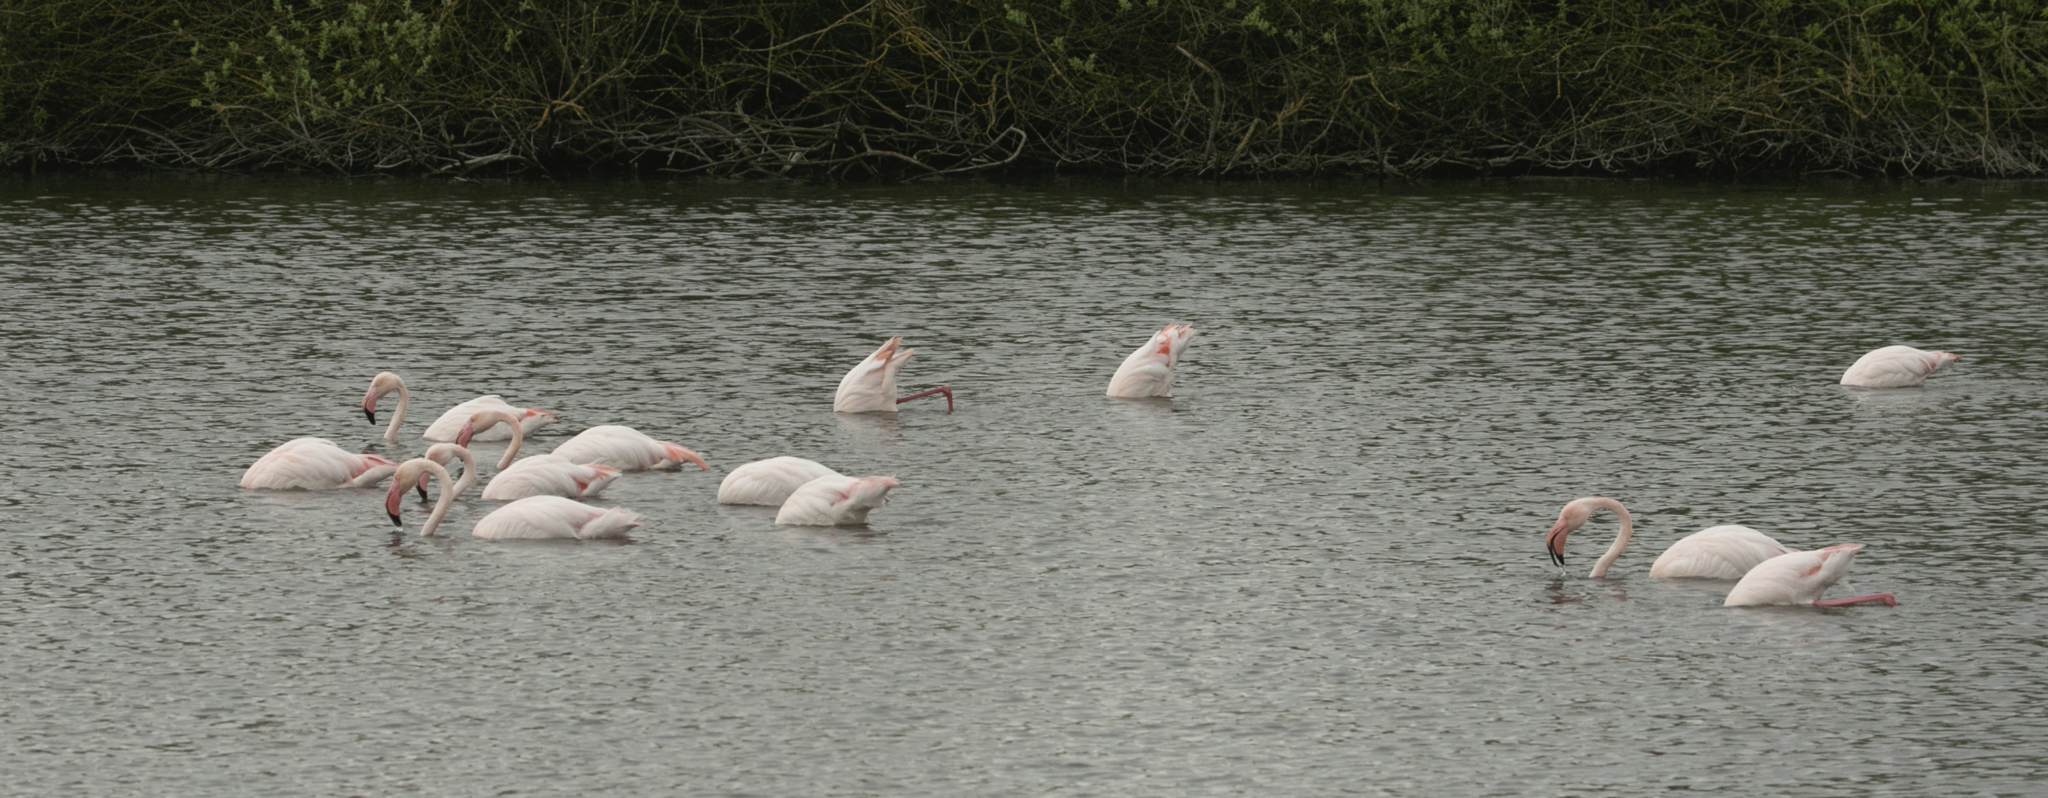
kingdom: Animalia
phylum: Chordata
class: Aves
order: Phoenicopteriformes
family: Phoenicopteridae
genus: Phoenicopterus
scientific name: Phoenicopterus roseus
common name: Greater flamingo
